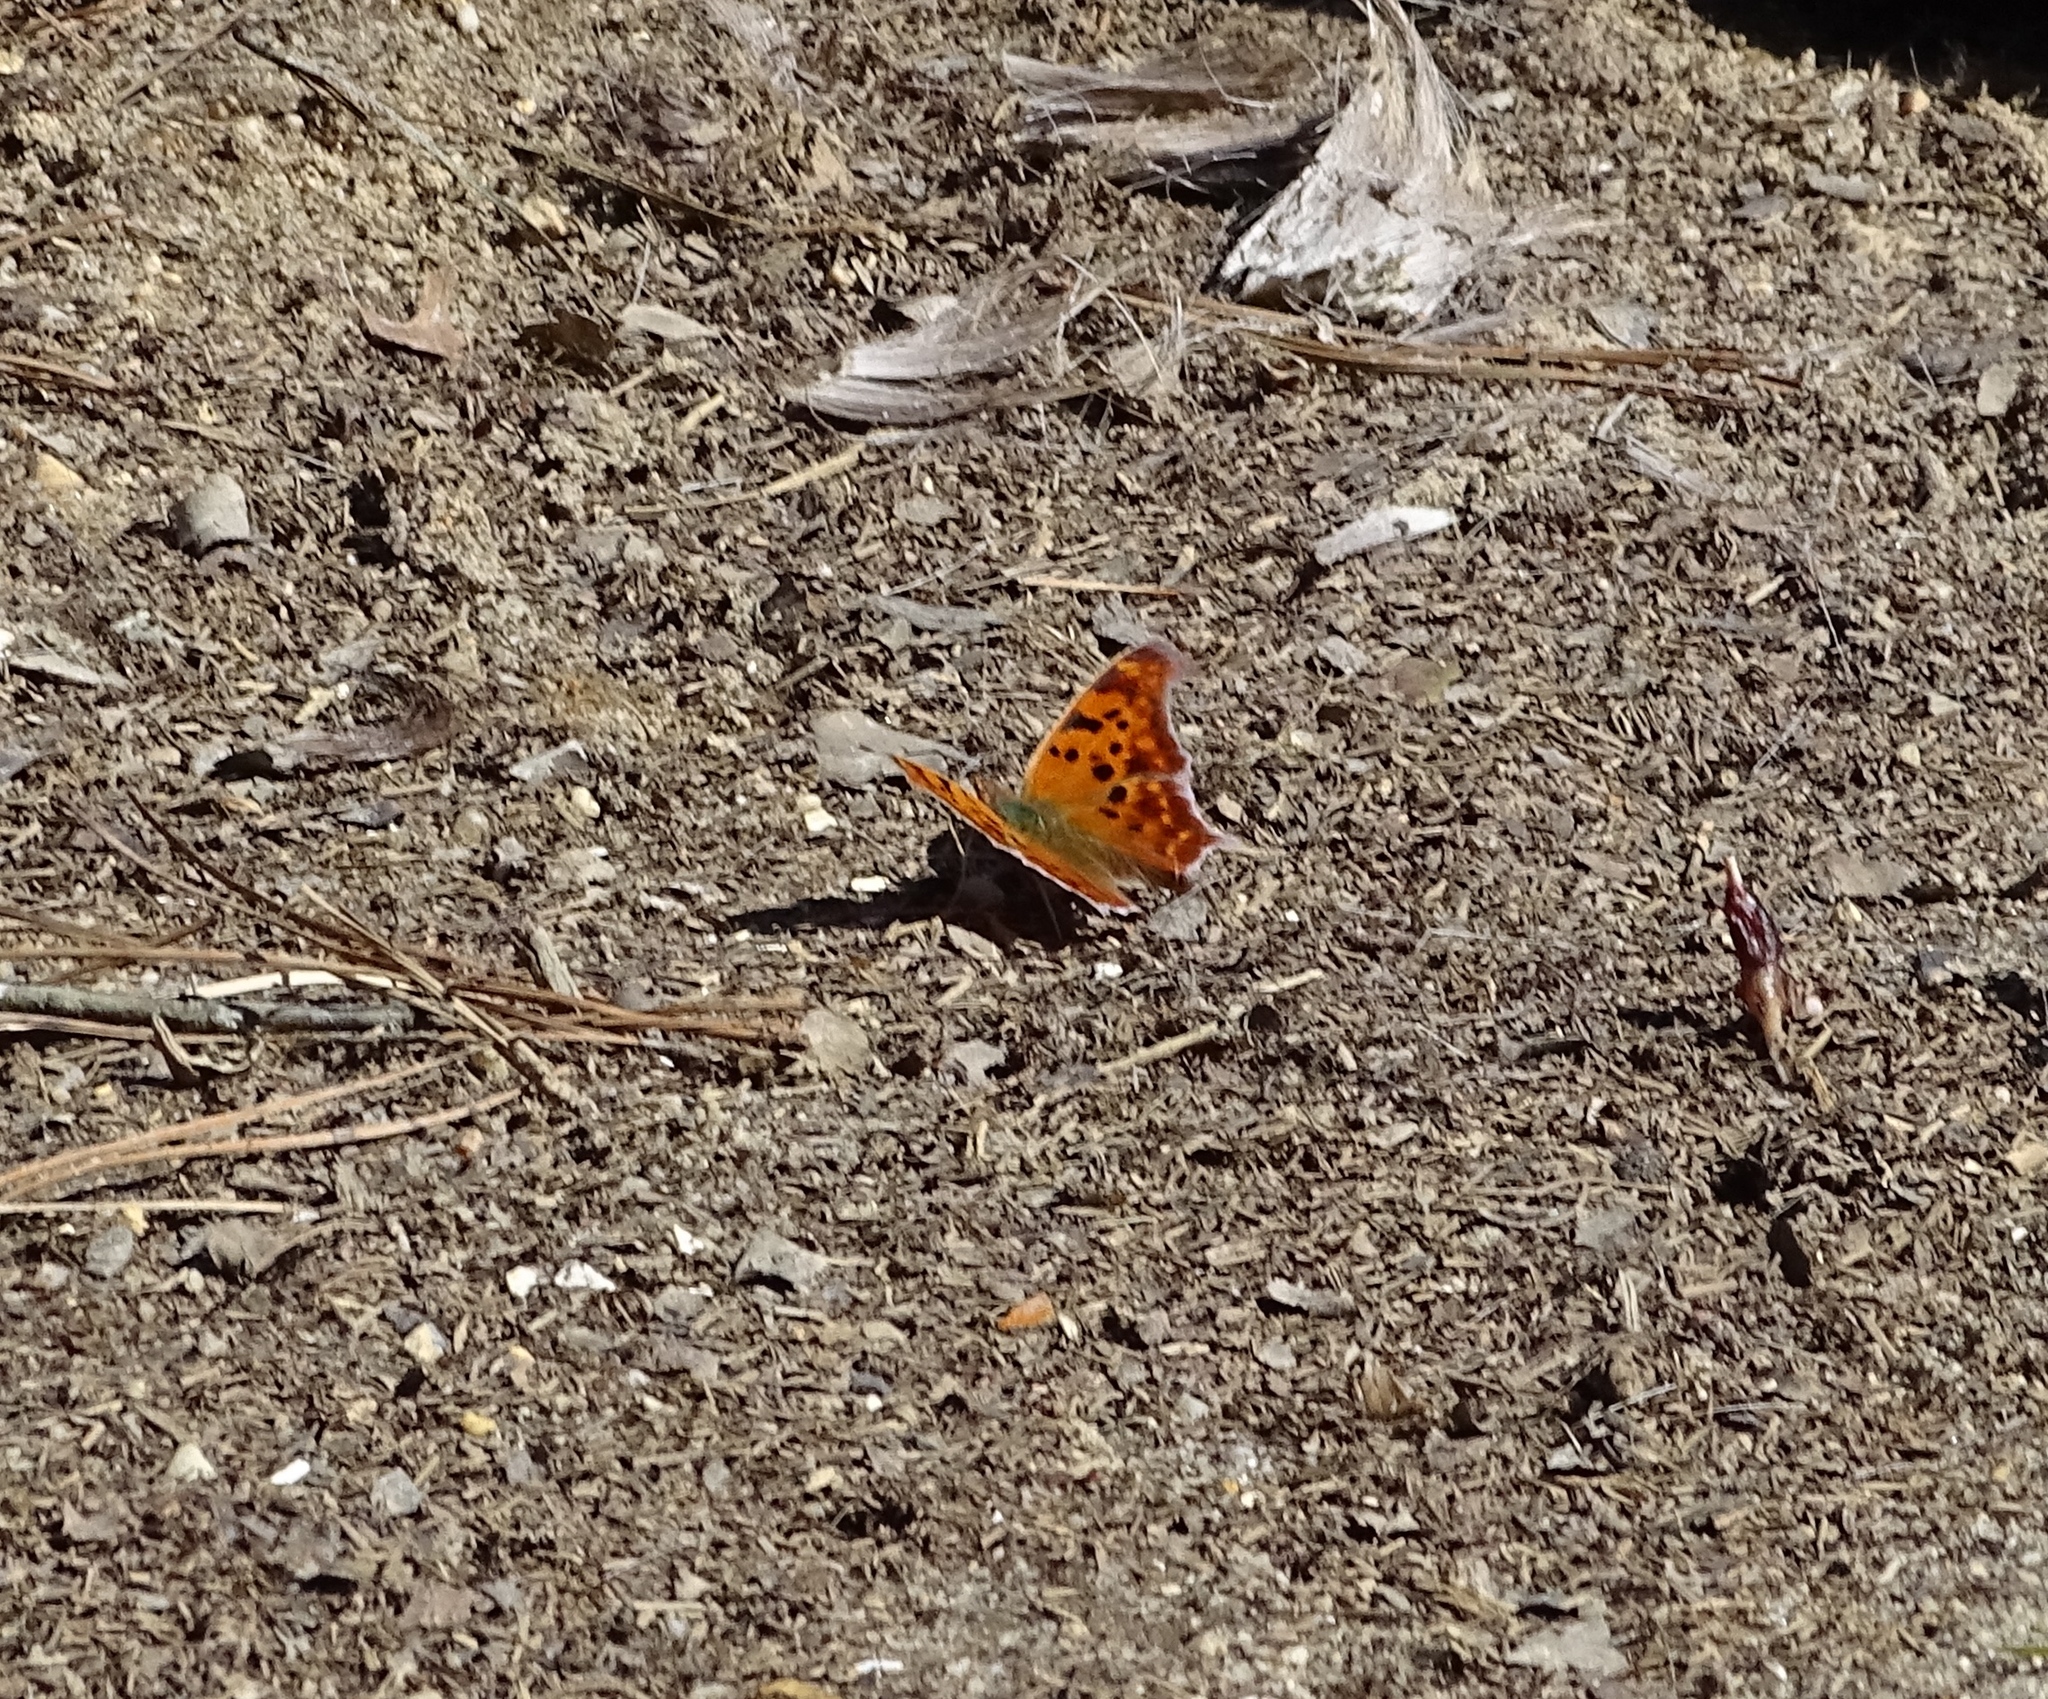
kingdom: Animalia
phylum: Arthropoda
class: Insecta
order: Lepidoptera
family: Nymphalidae
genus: Polygonia
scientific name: Polygonia interrogationis
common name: Question mark
